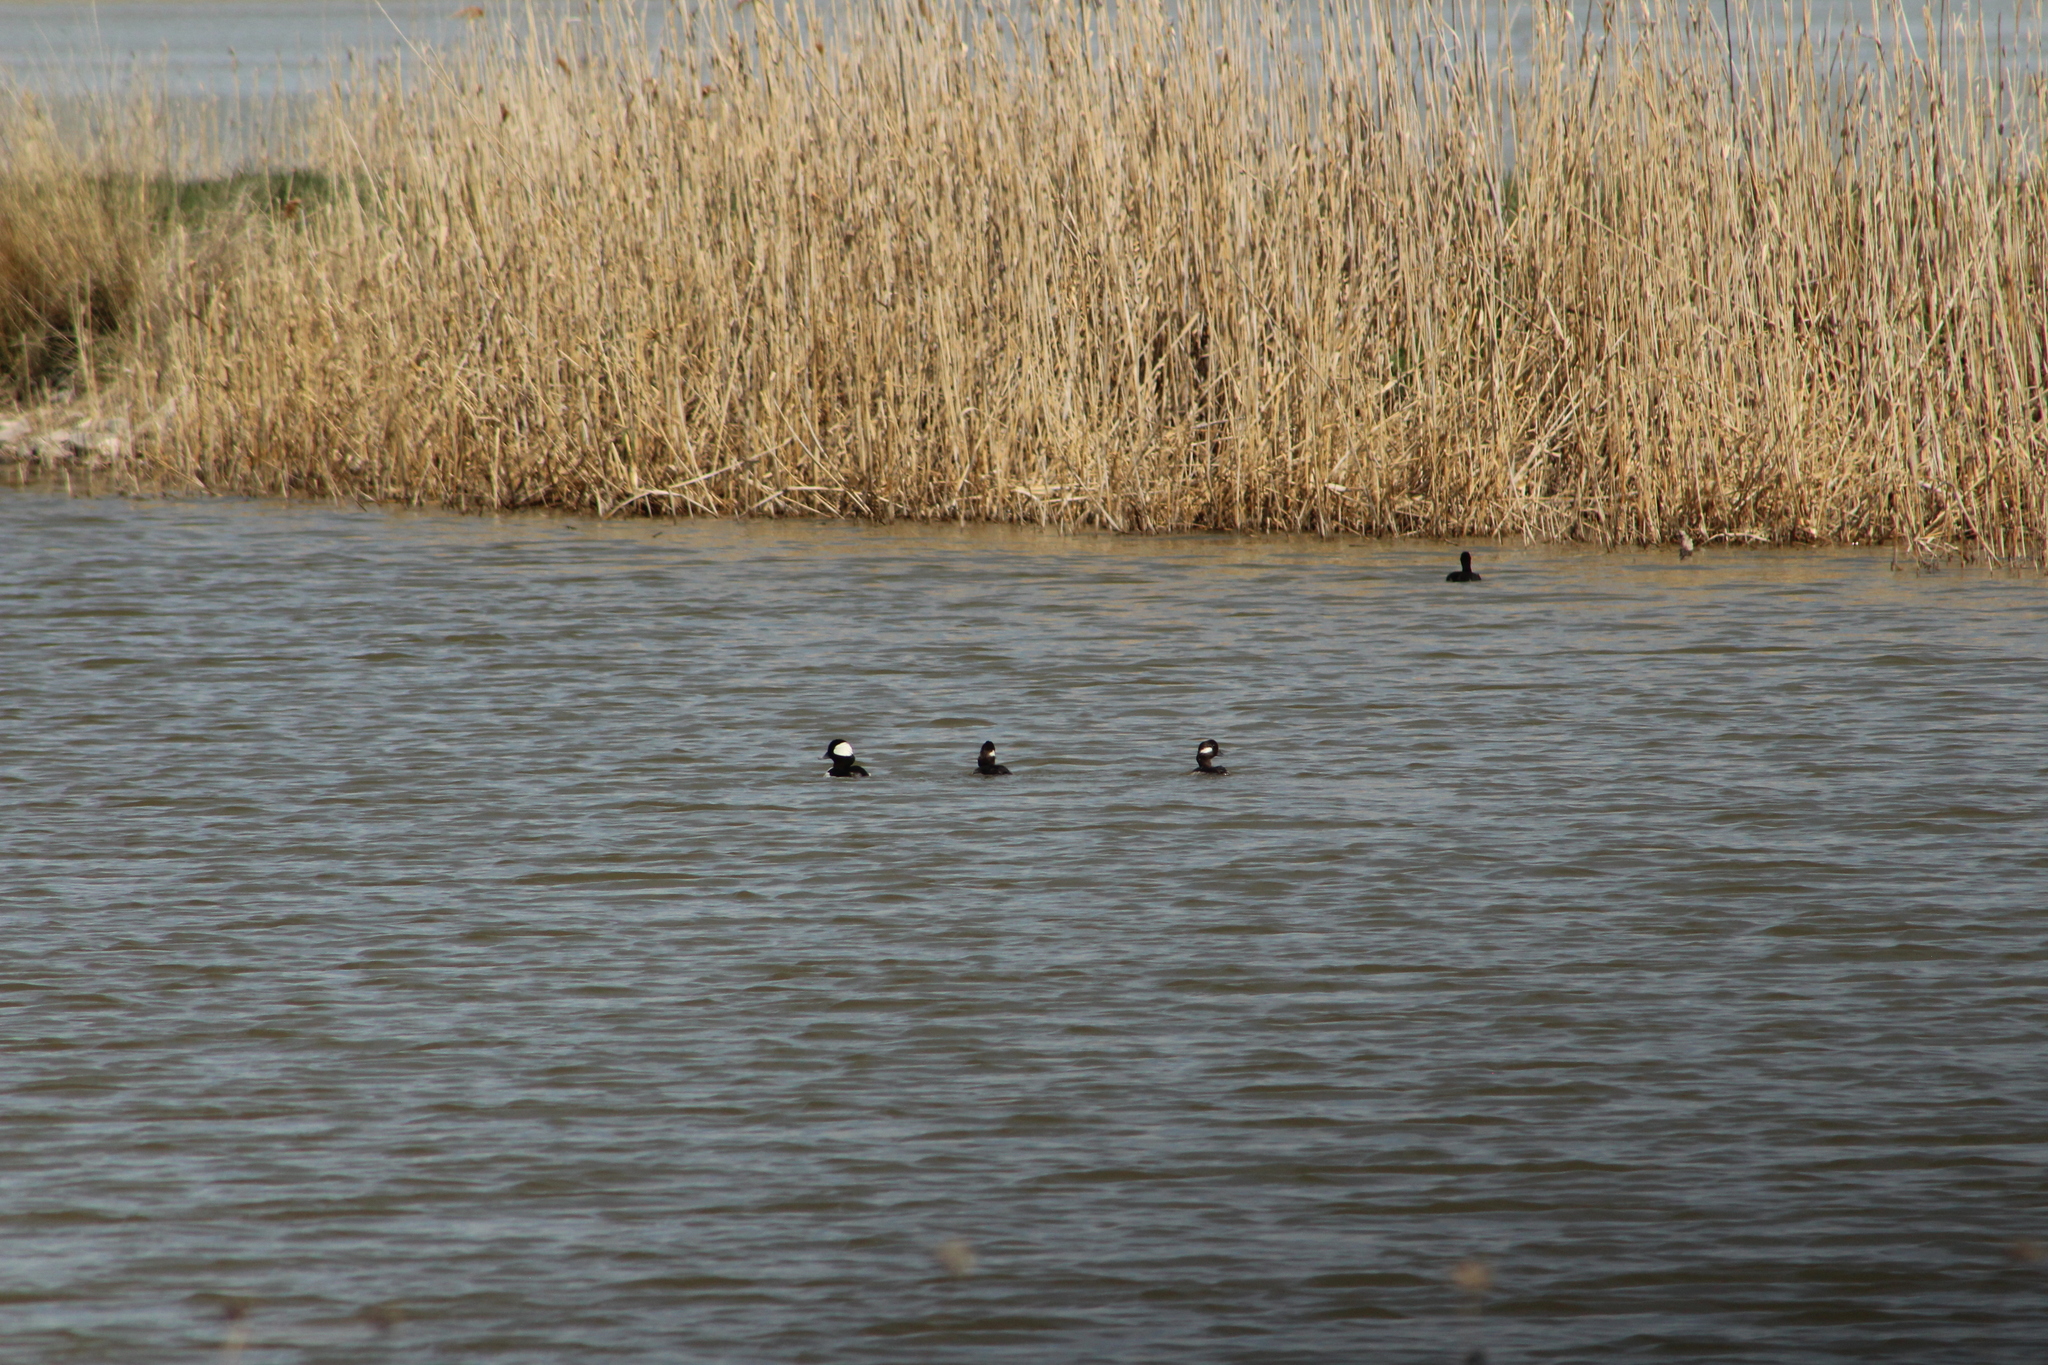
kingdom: Animalia
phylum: Chordata
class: Aves
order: Anseriformes
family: Anatidae
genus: Bucephala
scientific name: Bucephala albeola
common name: Bufflehead
